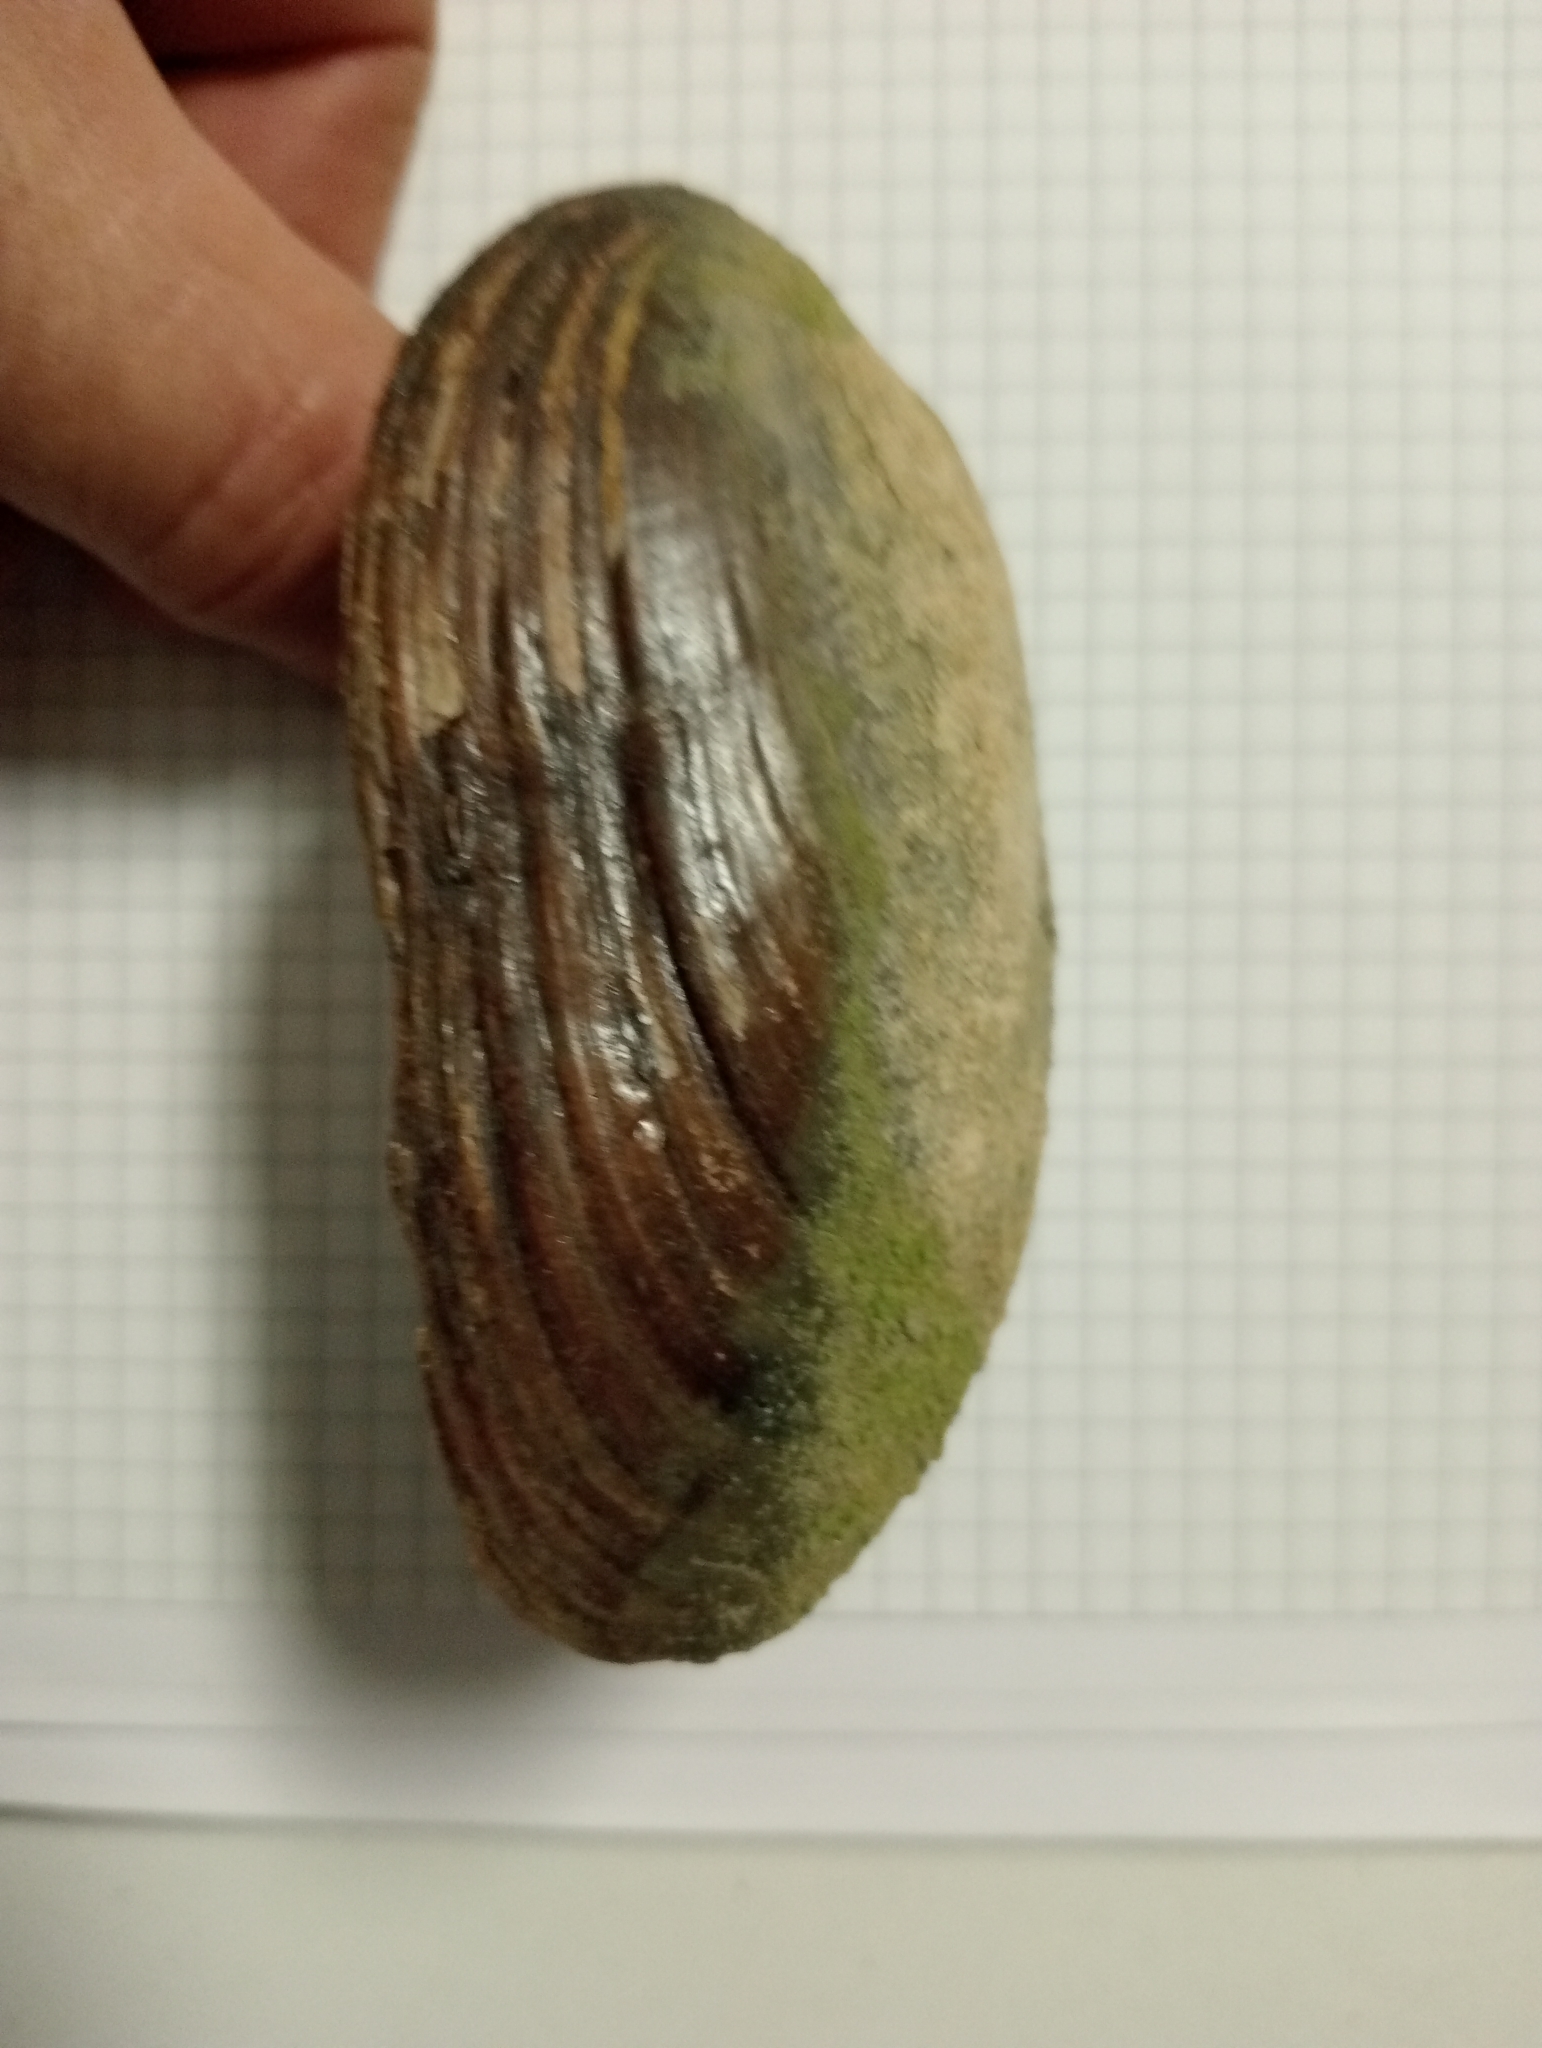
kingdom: Animalia
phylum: Mollusca
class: Bivalvia
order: Unionida
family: Unionidae
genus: Microcondylaea
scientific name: Microcondylaea bonellii
